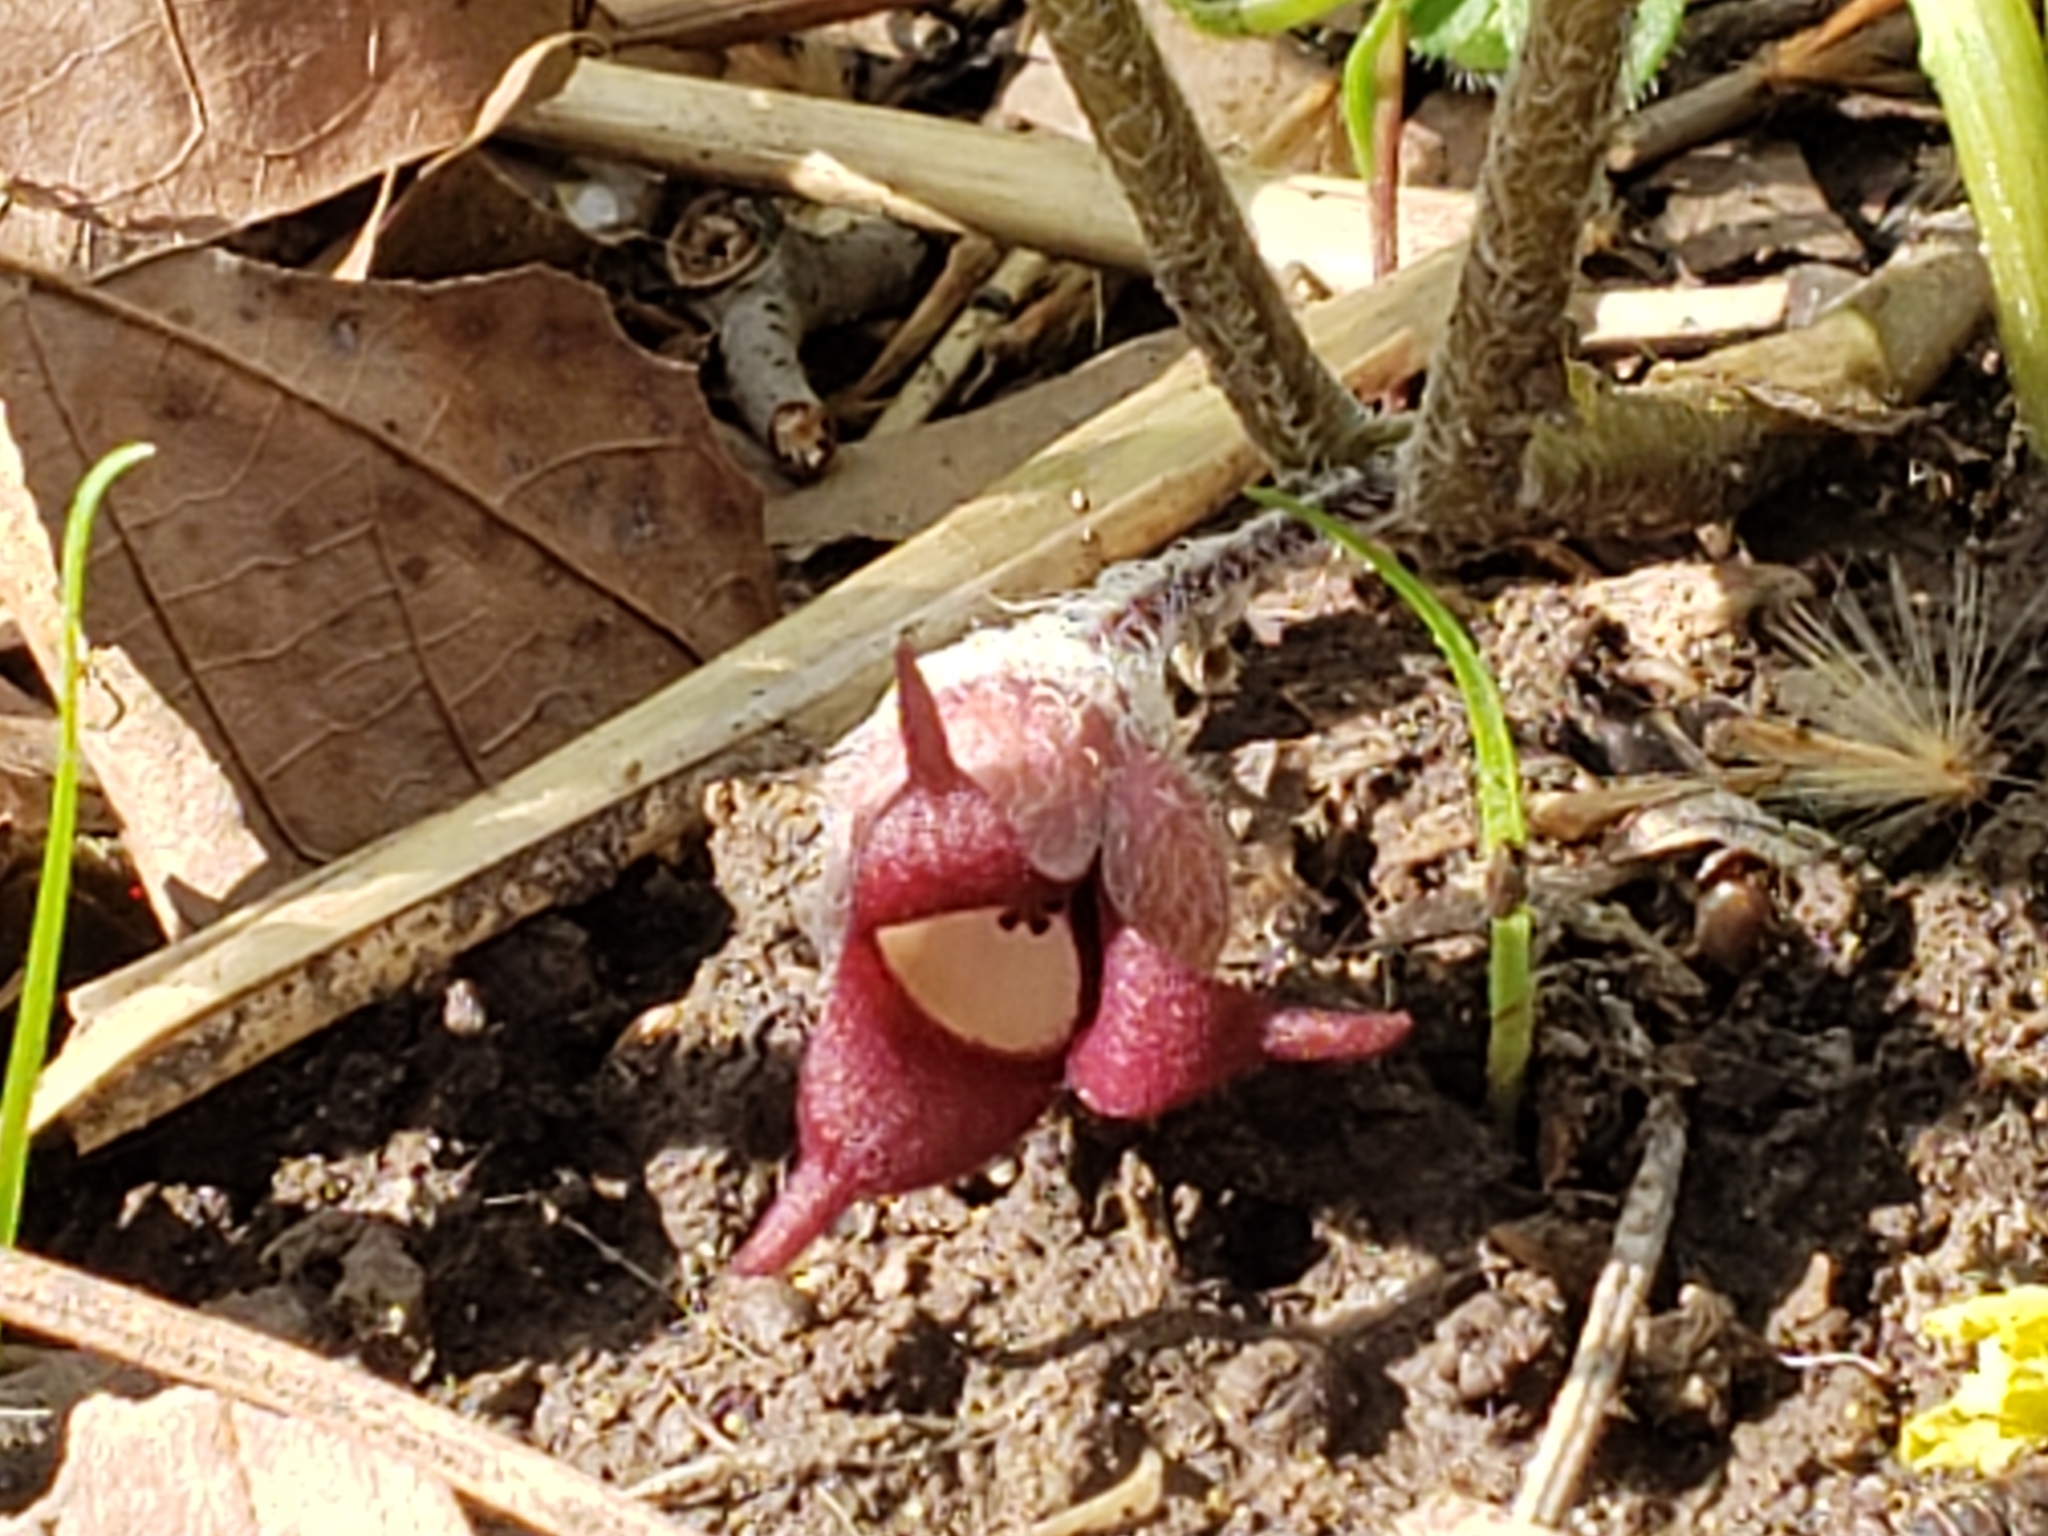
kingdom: Plantae
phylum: Tracheophyta
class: Magnoliopsida
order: Piperales
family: Aristolochiaceae
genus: Asarum
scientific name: Asarum canadense
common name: Wild ginger
